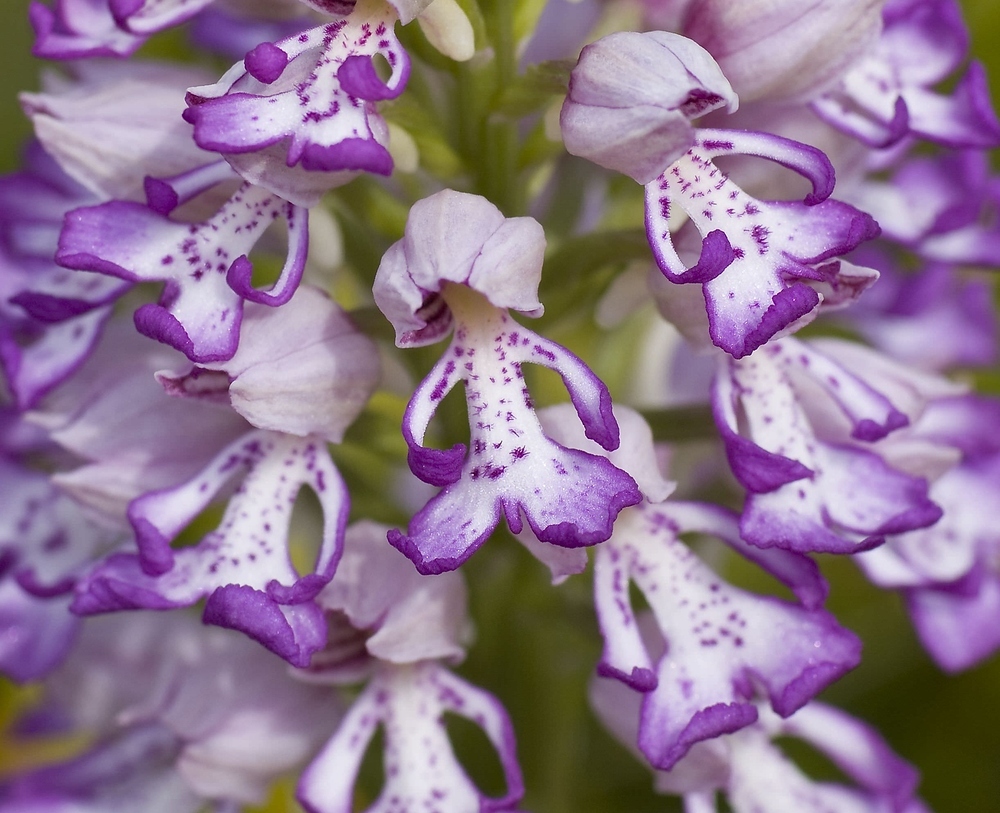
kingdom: Plantae
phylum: Tracheophyta
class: Liliopsida
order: Asparagales
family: Orchidaceae
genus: Orchis
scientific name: Orchis militaris
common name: Military orchid
